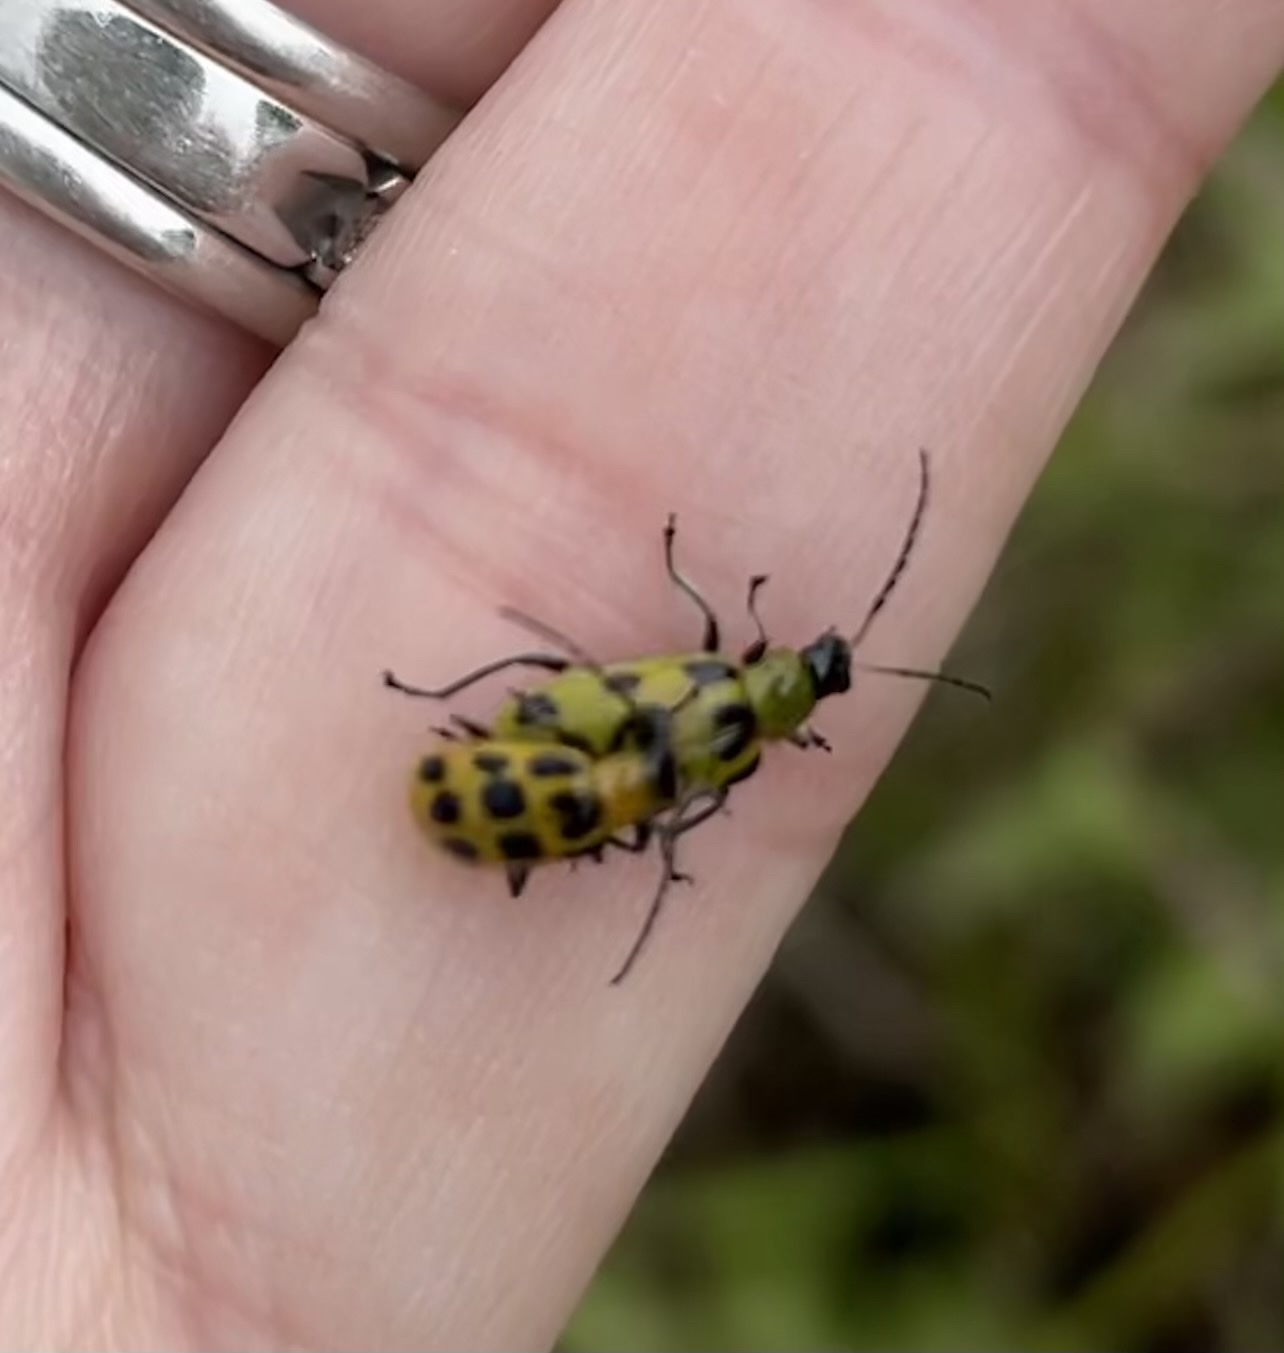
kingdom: Animalia
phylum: Arthropoda
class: Insecta
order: Coleoptera
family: Chrysomelidae
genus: Diabrotica
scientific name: Diabrotica undecimpunctata
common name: Spotted cucumber beetle
